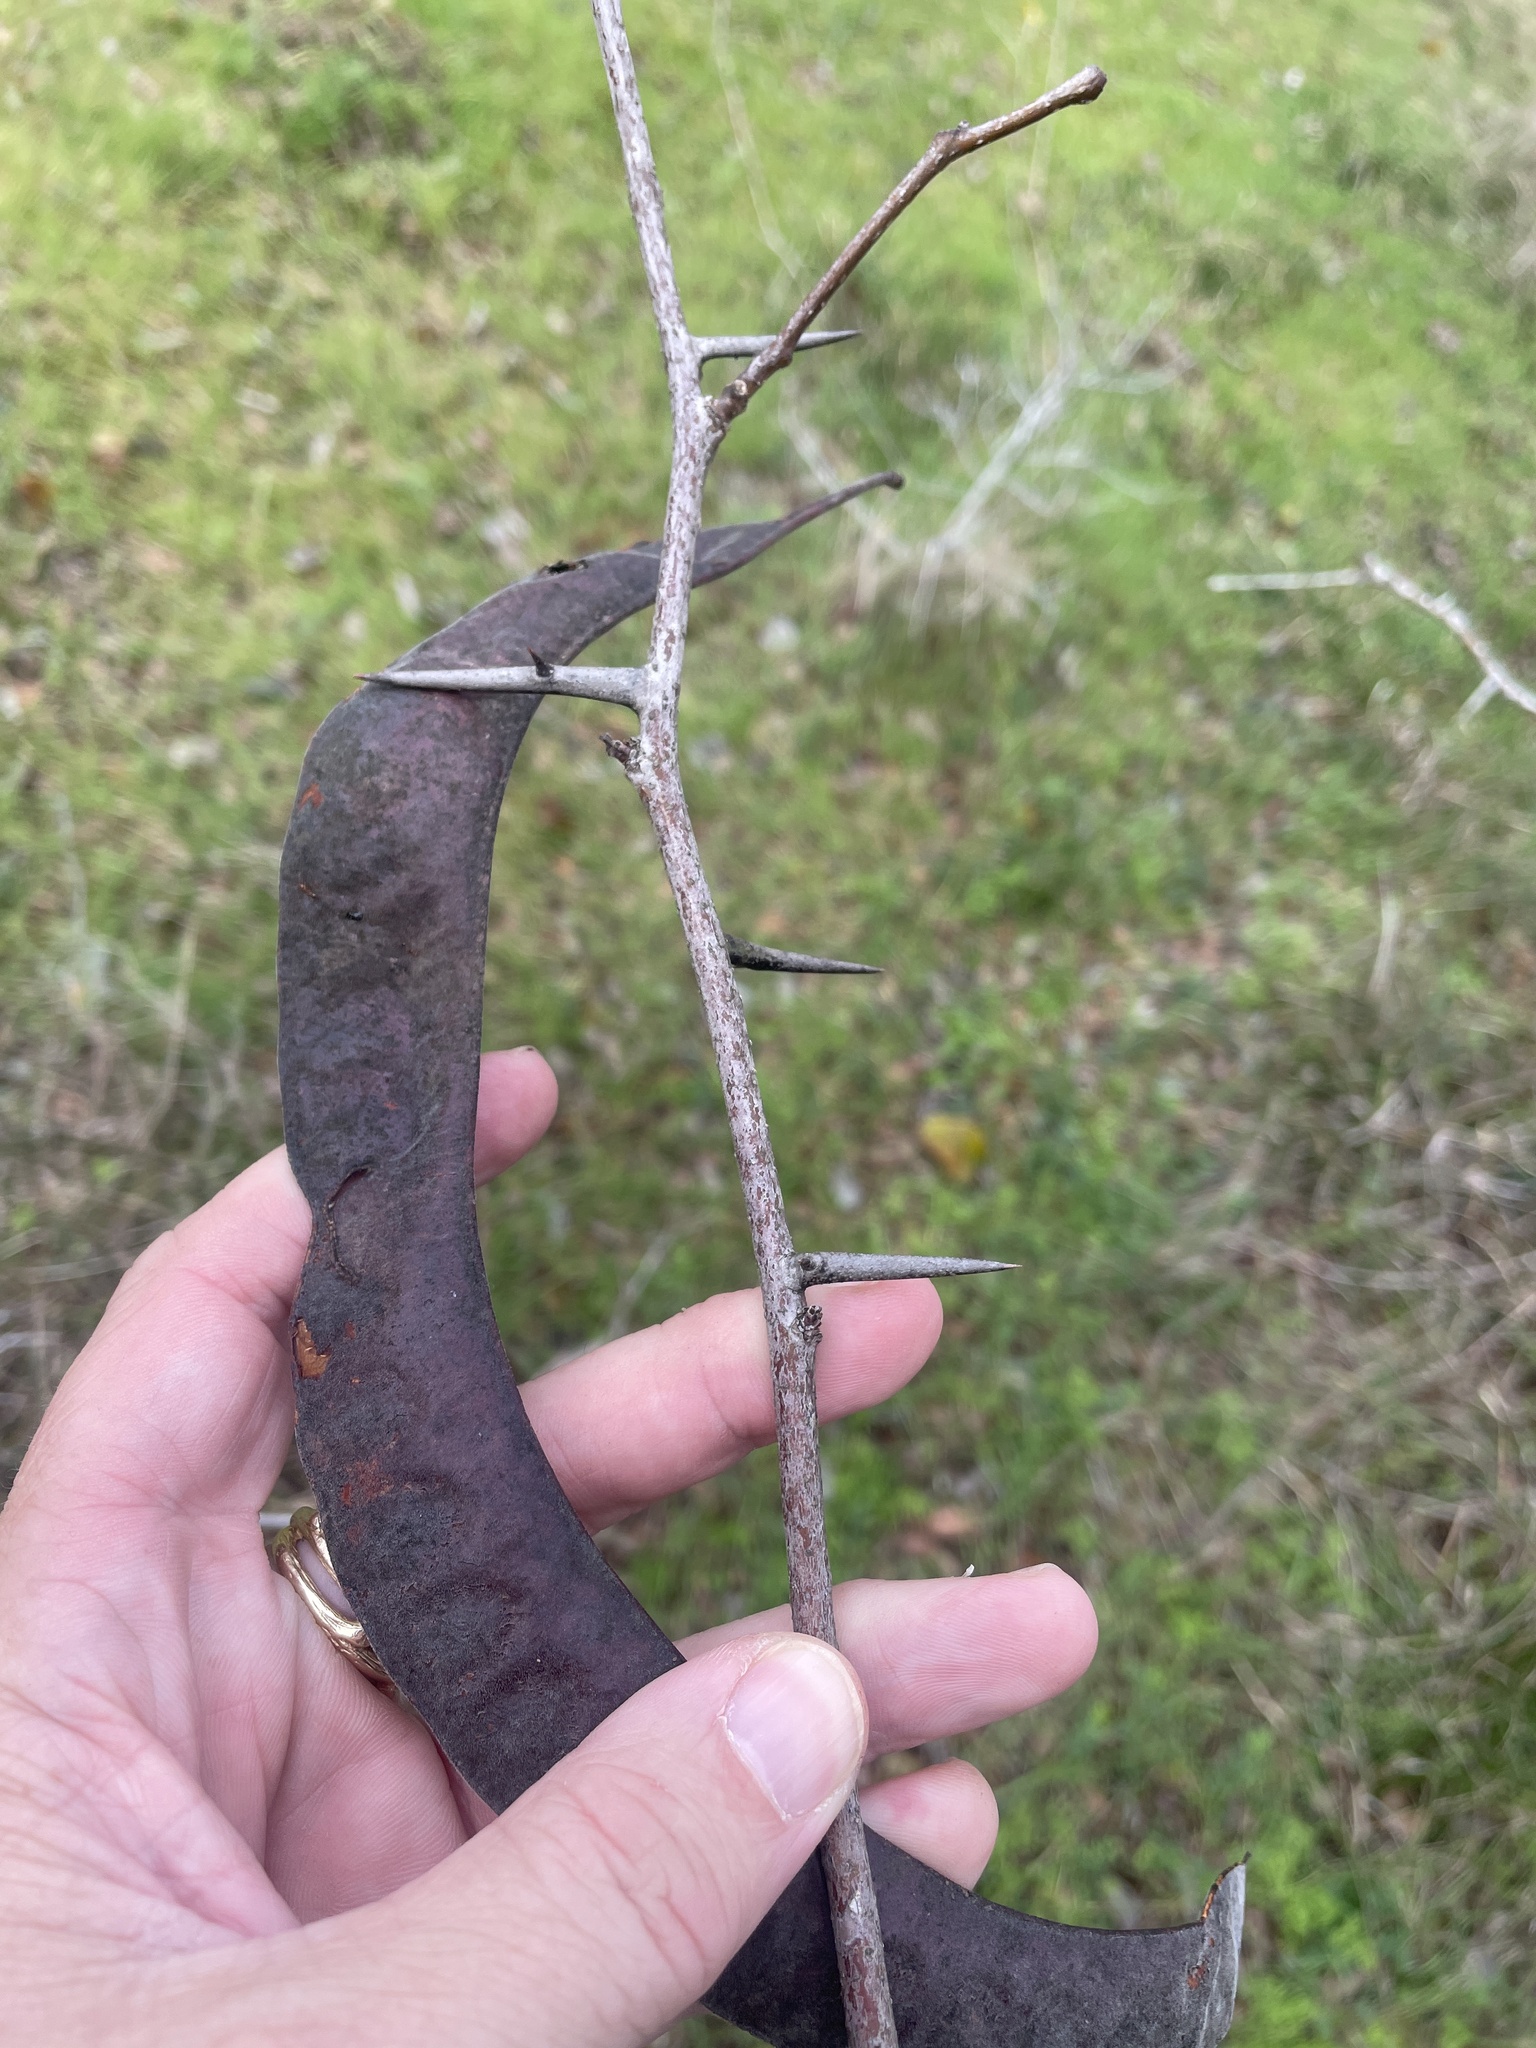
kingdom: Plantae
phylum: Tracheophyta
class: Magnoliopsida
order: Fabales
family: Fabaceae
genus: Gleditsia
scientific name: Gleditsia triacanthos
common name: Common honeylocust
